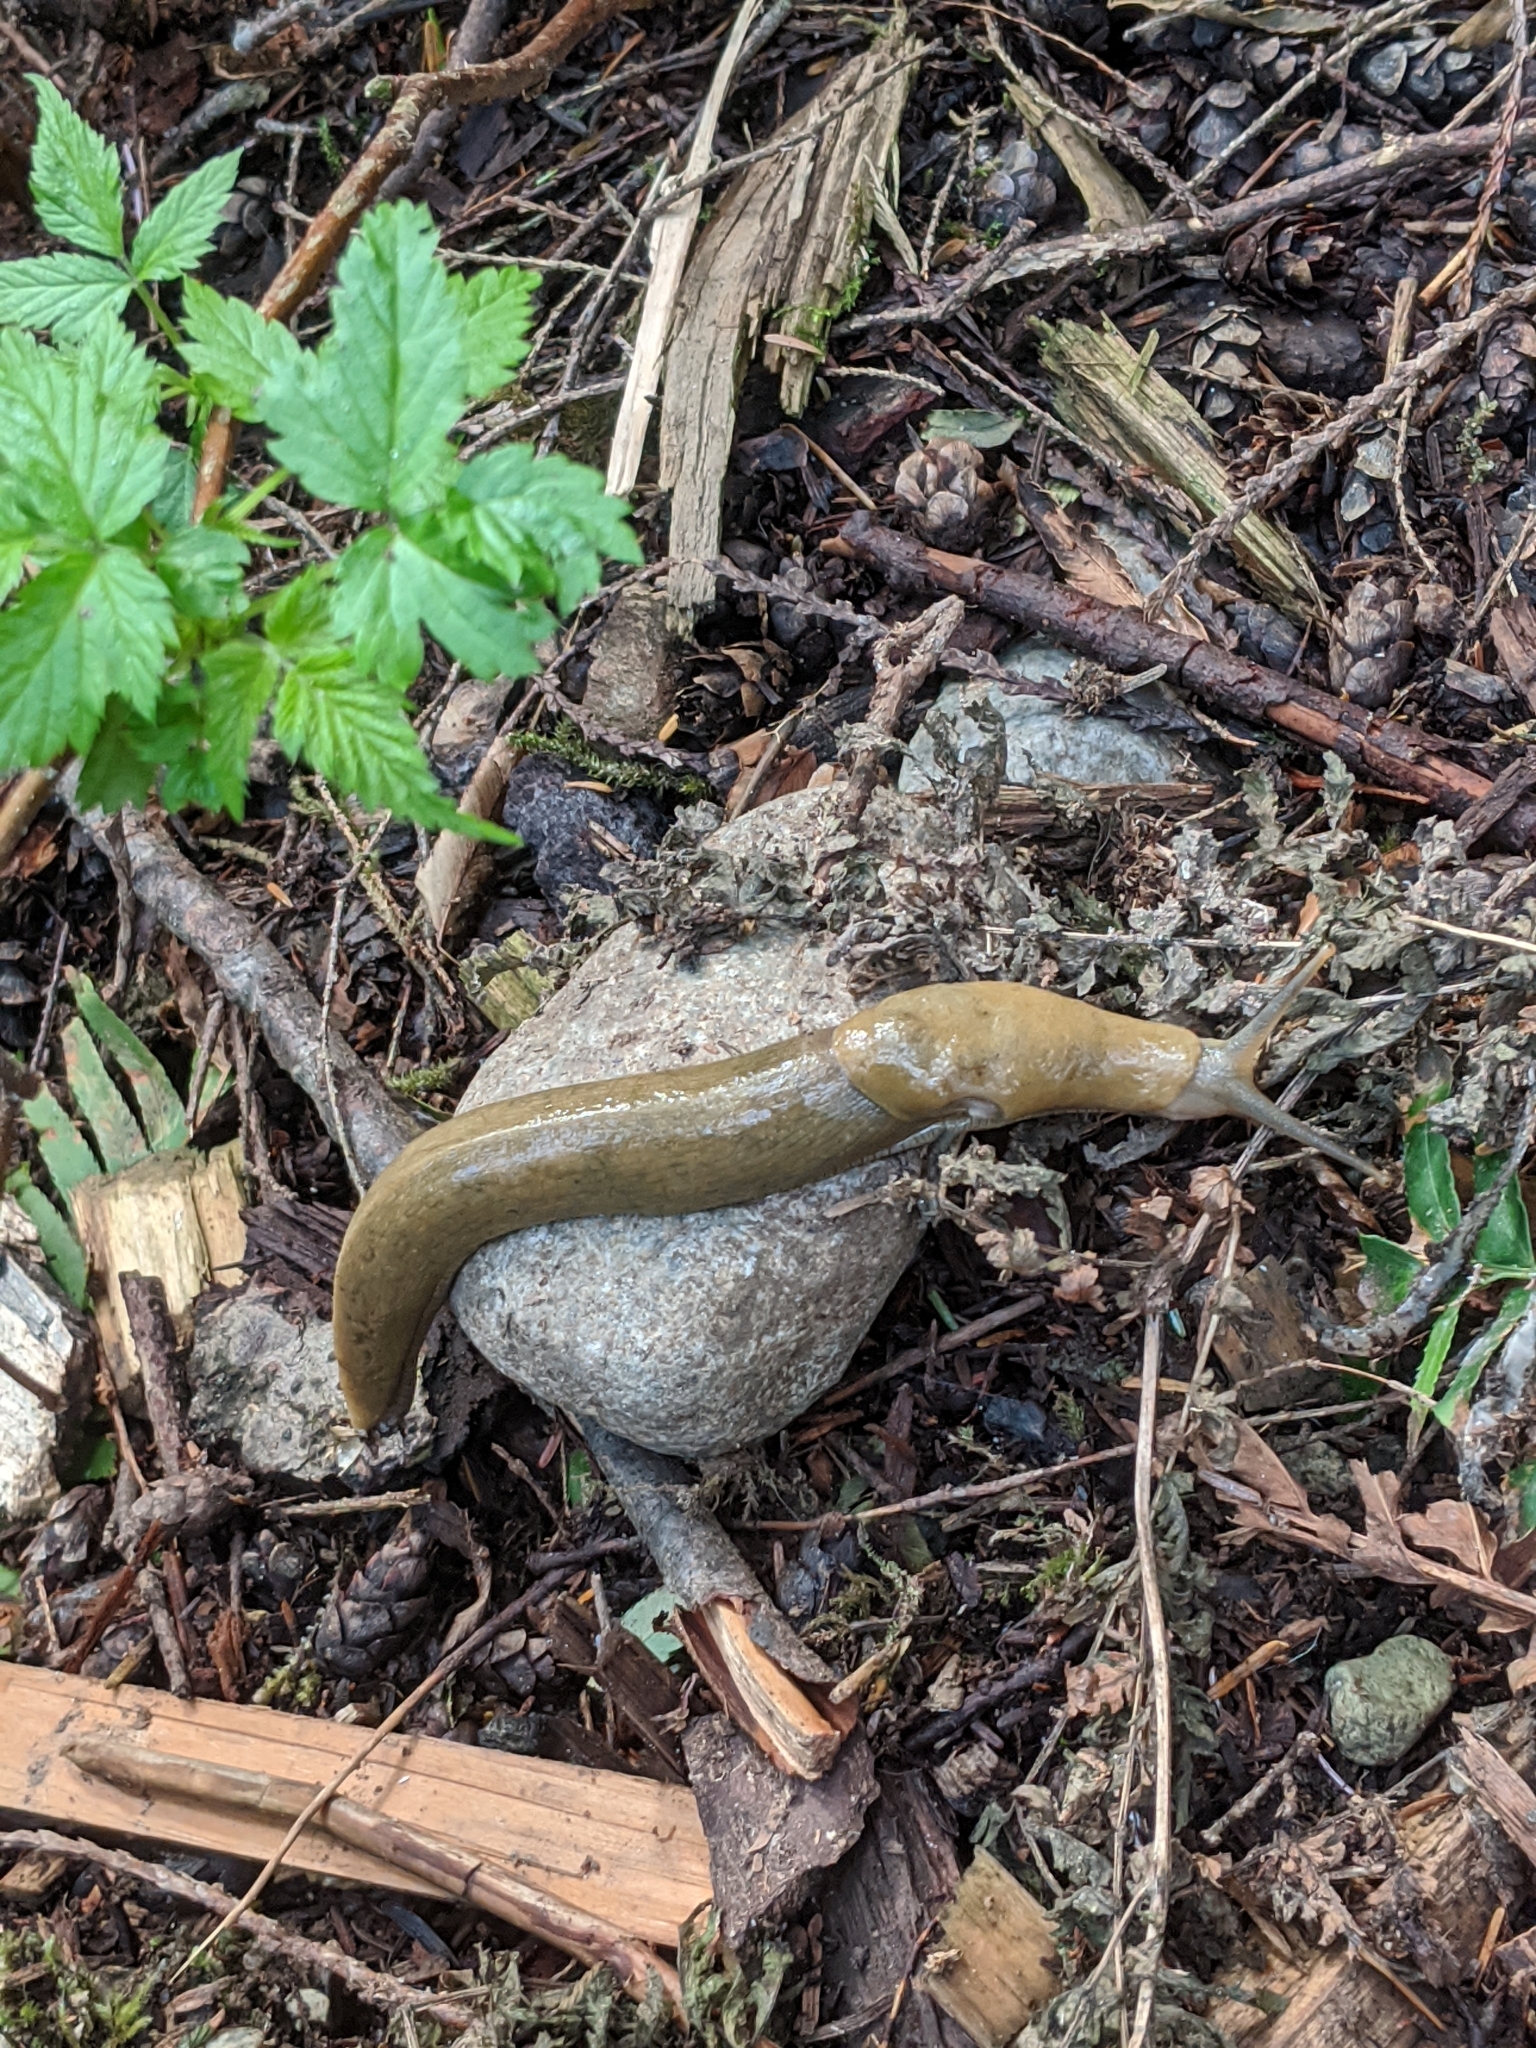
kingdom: Animalia
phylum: Mollusca
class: Gastropoda
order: Stylommatophora
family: Ariolimacidae
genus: Ariolimax
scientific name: Ariolimax columbianus
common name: Pacific banana slug
